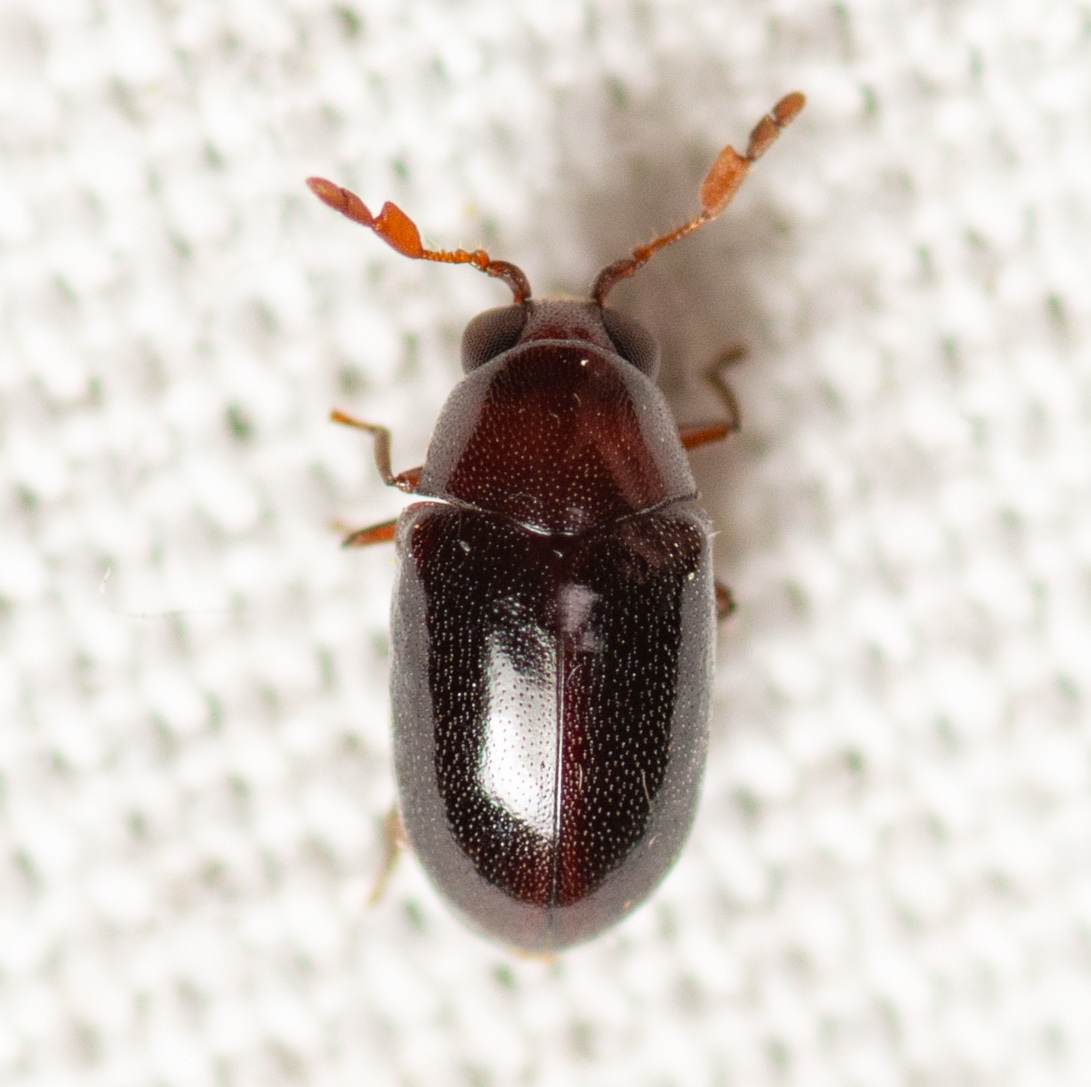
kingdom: Animalia
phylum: Arthropoda
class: Insecta
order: Coleoptera
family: Anobiidae
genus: Calymmaderus
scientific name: Calymmaderus nitidus
